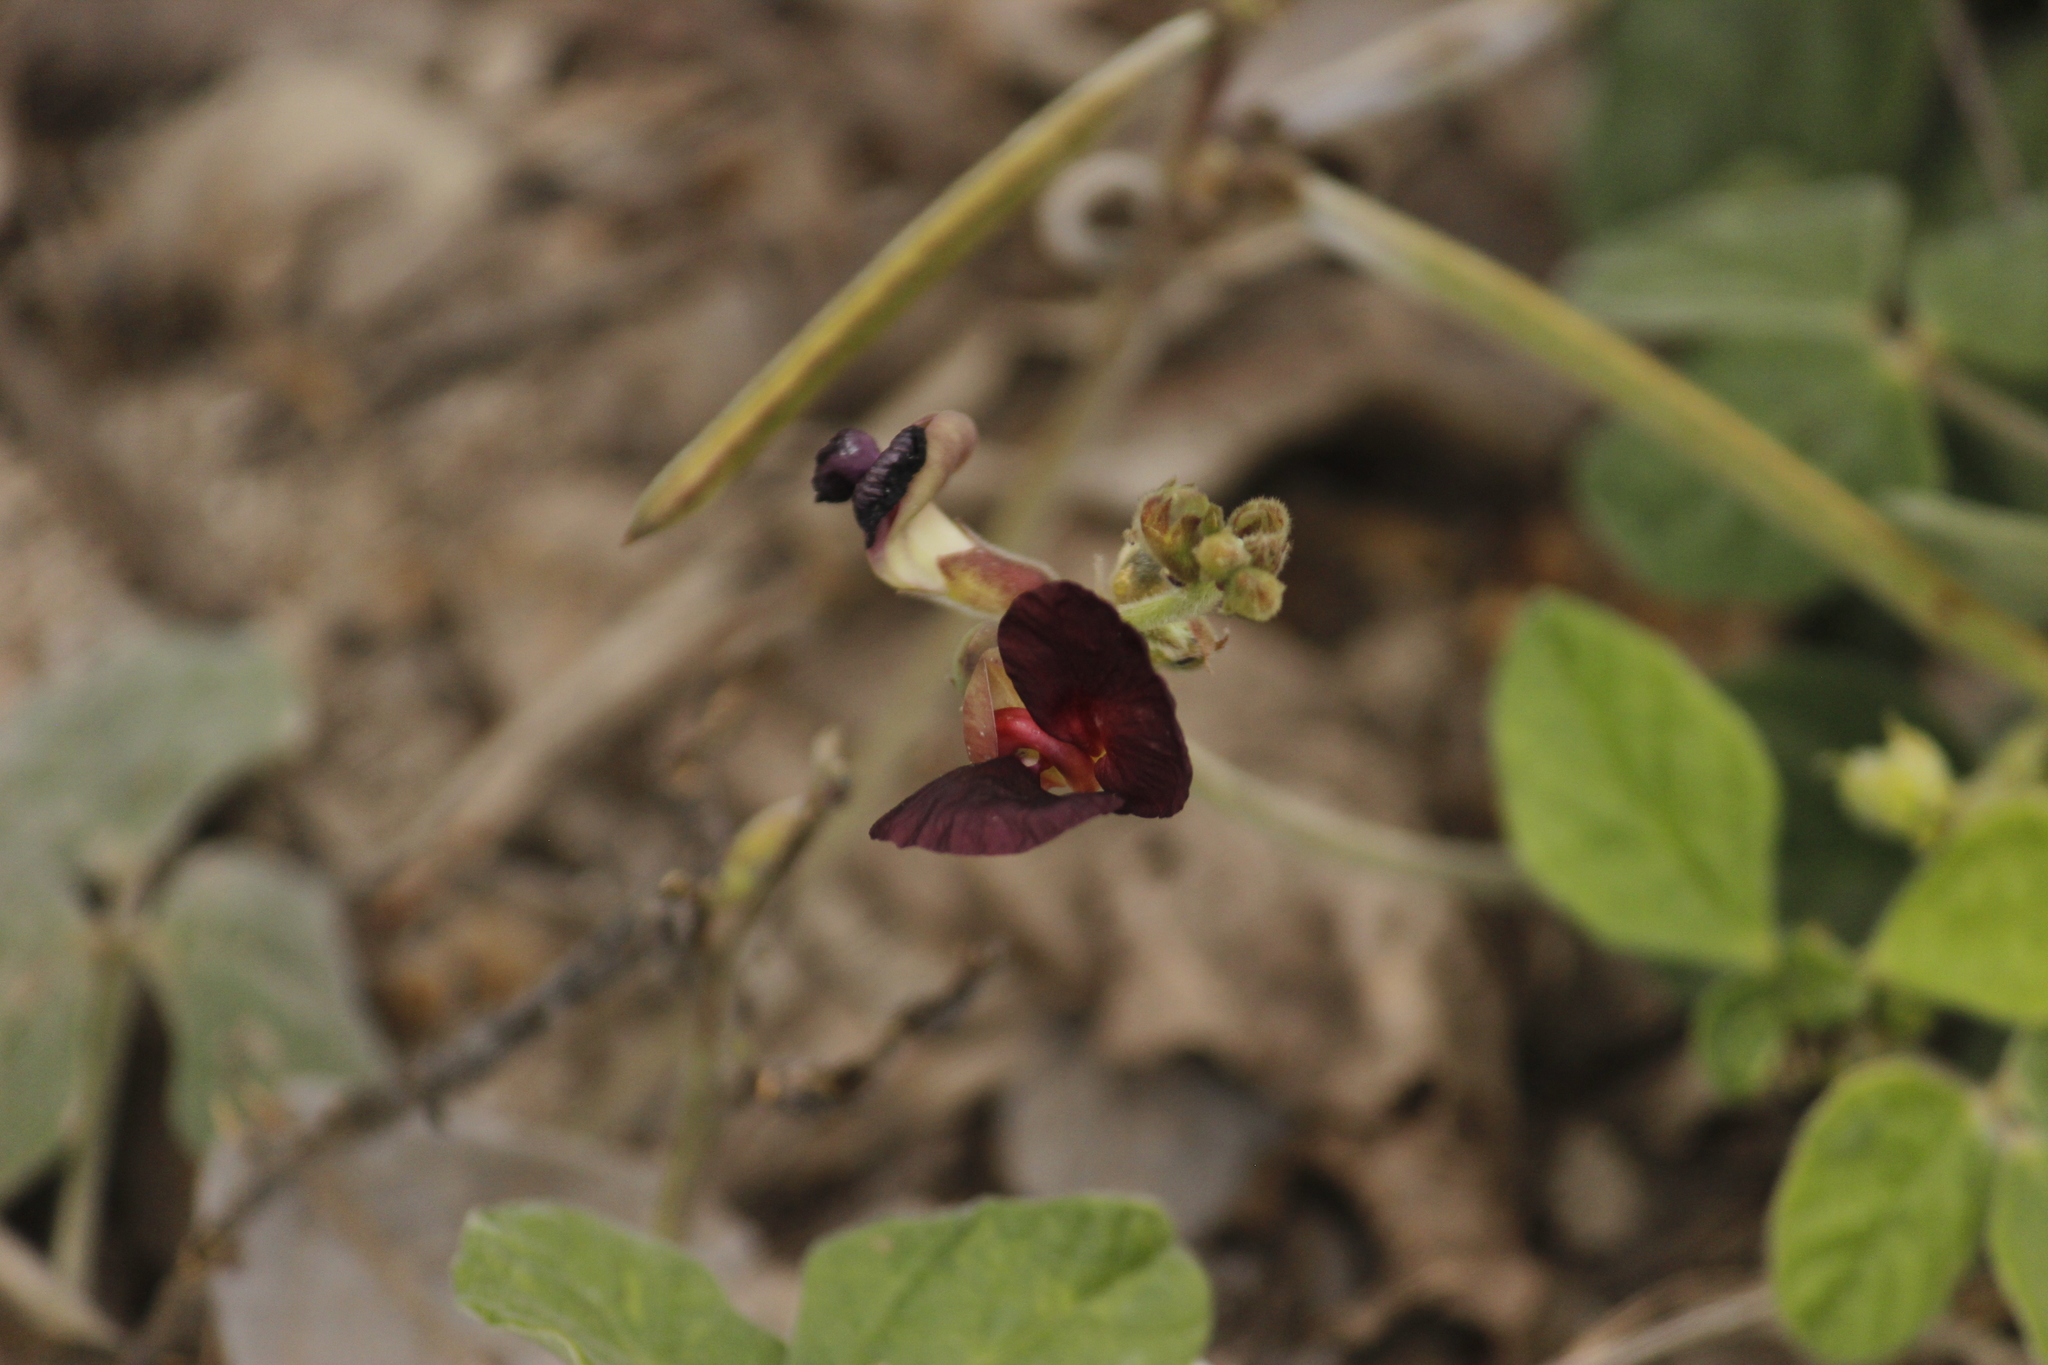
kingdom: Plantae
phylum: Tracheophyta
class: Magnoliopsida
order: Fabales
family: Fabaceae
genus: Macroptilium
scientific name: Macroptilium atropurpureum
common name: Purple bushbean
